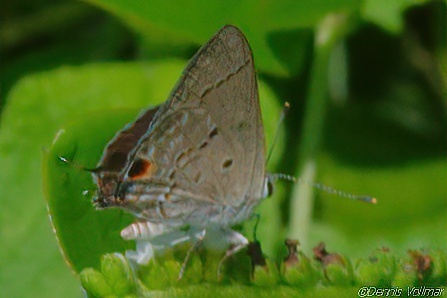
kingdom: Animalia
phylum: Arthropoda
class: Insecta
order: Lepidoptera
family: Lycaenidae
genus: Callicista
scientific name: Callicista columella
